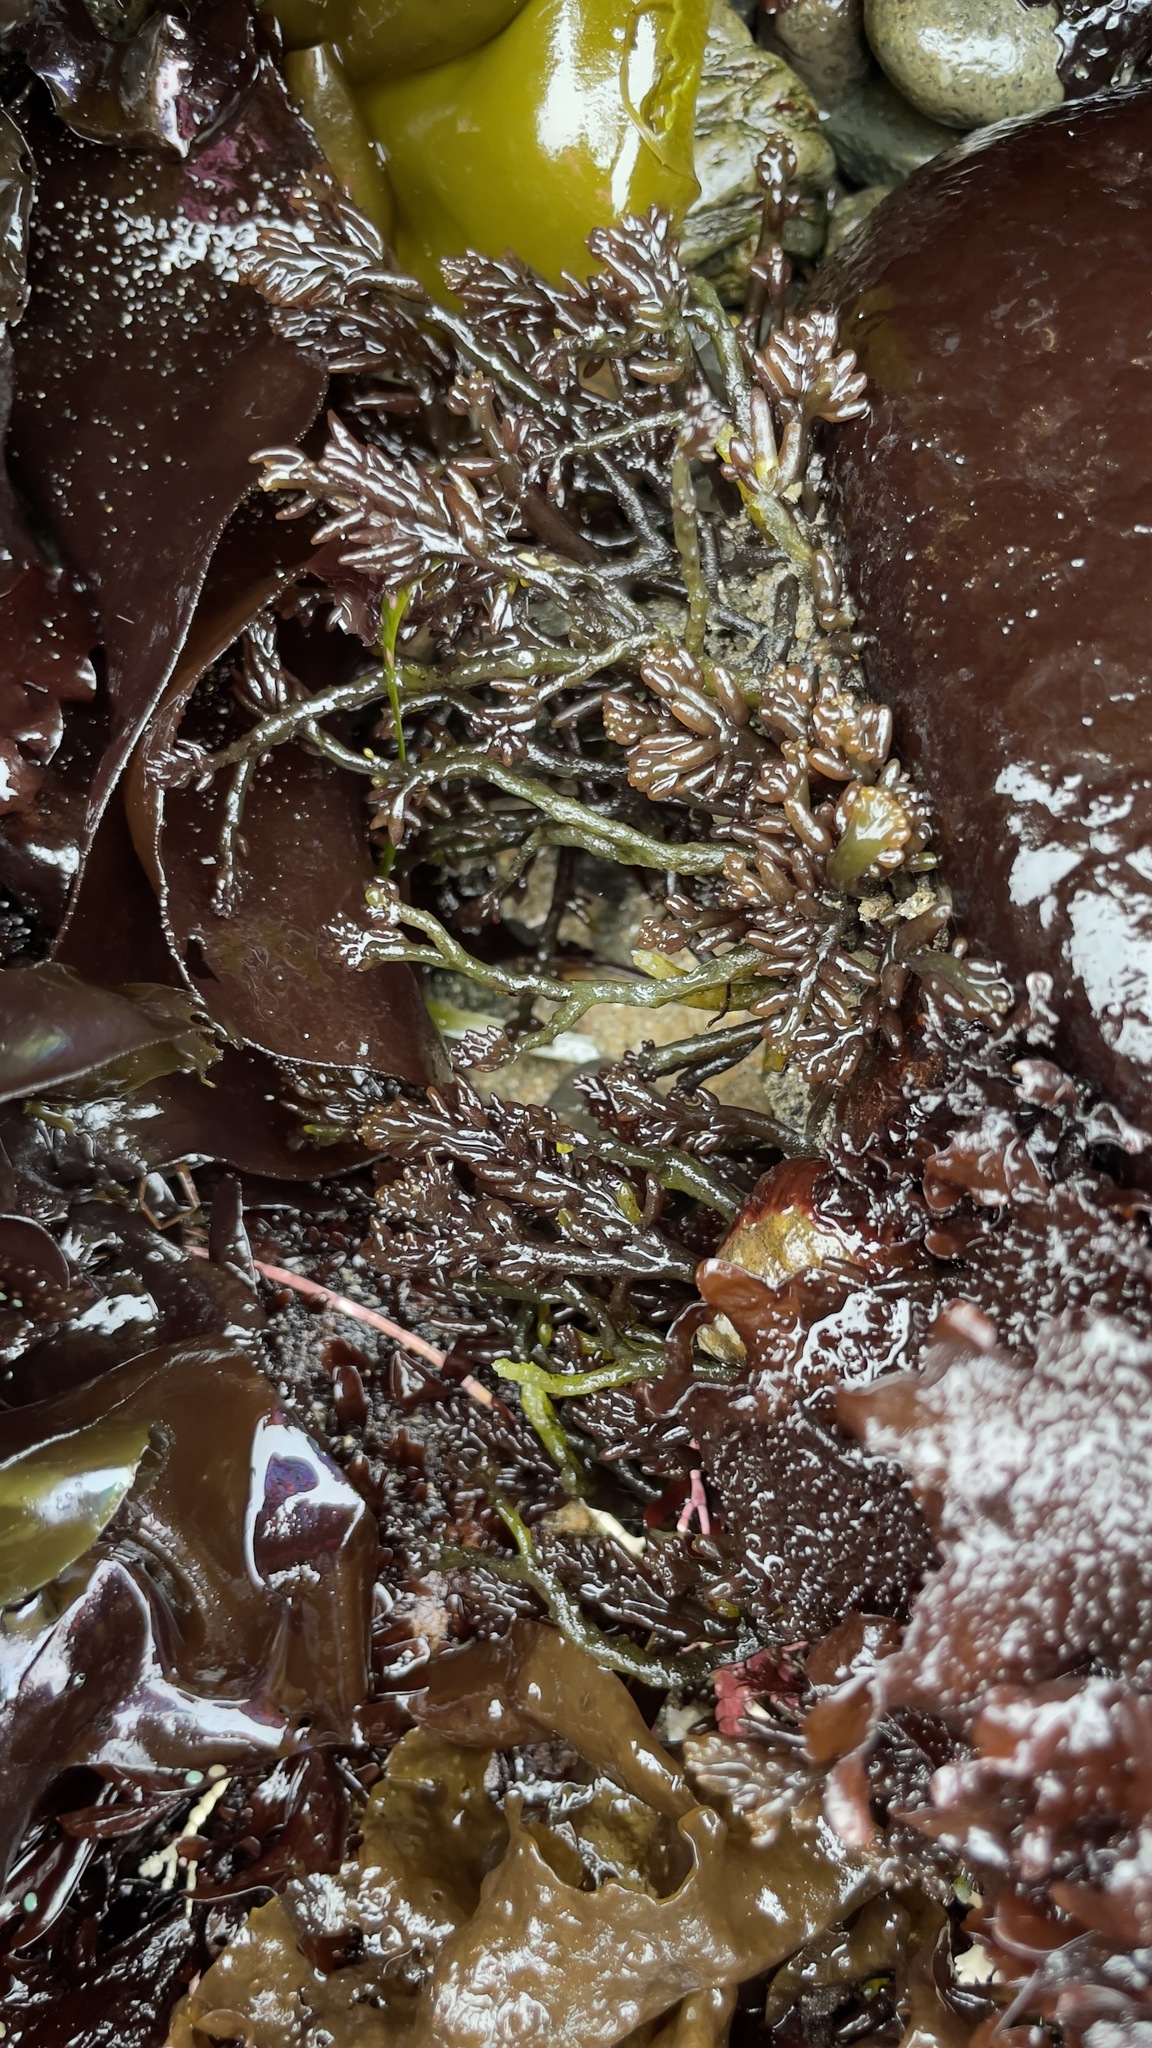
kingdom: Plantae
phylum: Rhodophyta
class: Florideophyceae
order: Rhodymeniales
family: Champiaceae
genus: Neogastroclonium
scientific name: Neogastroclonium subarticulatum
